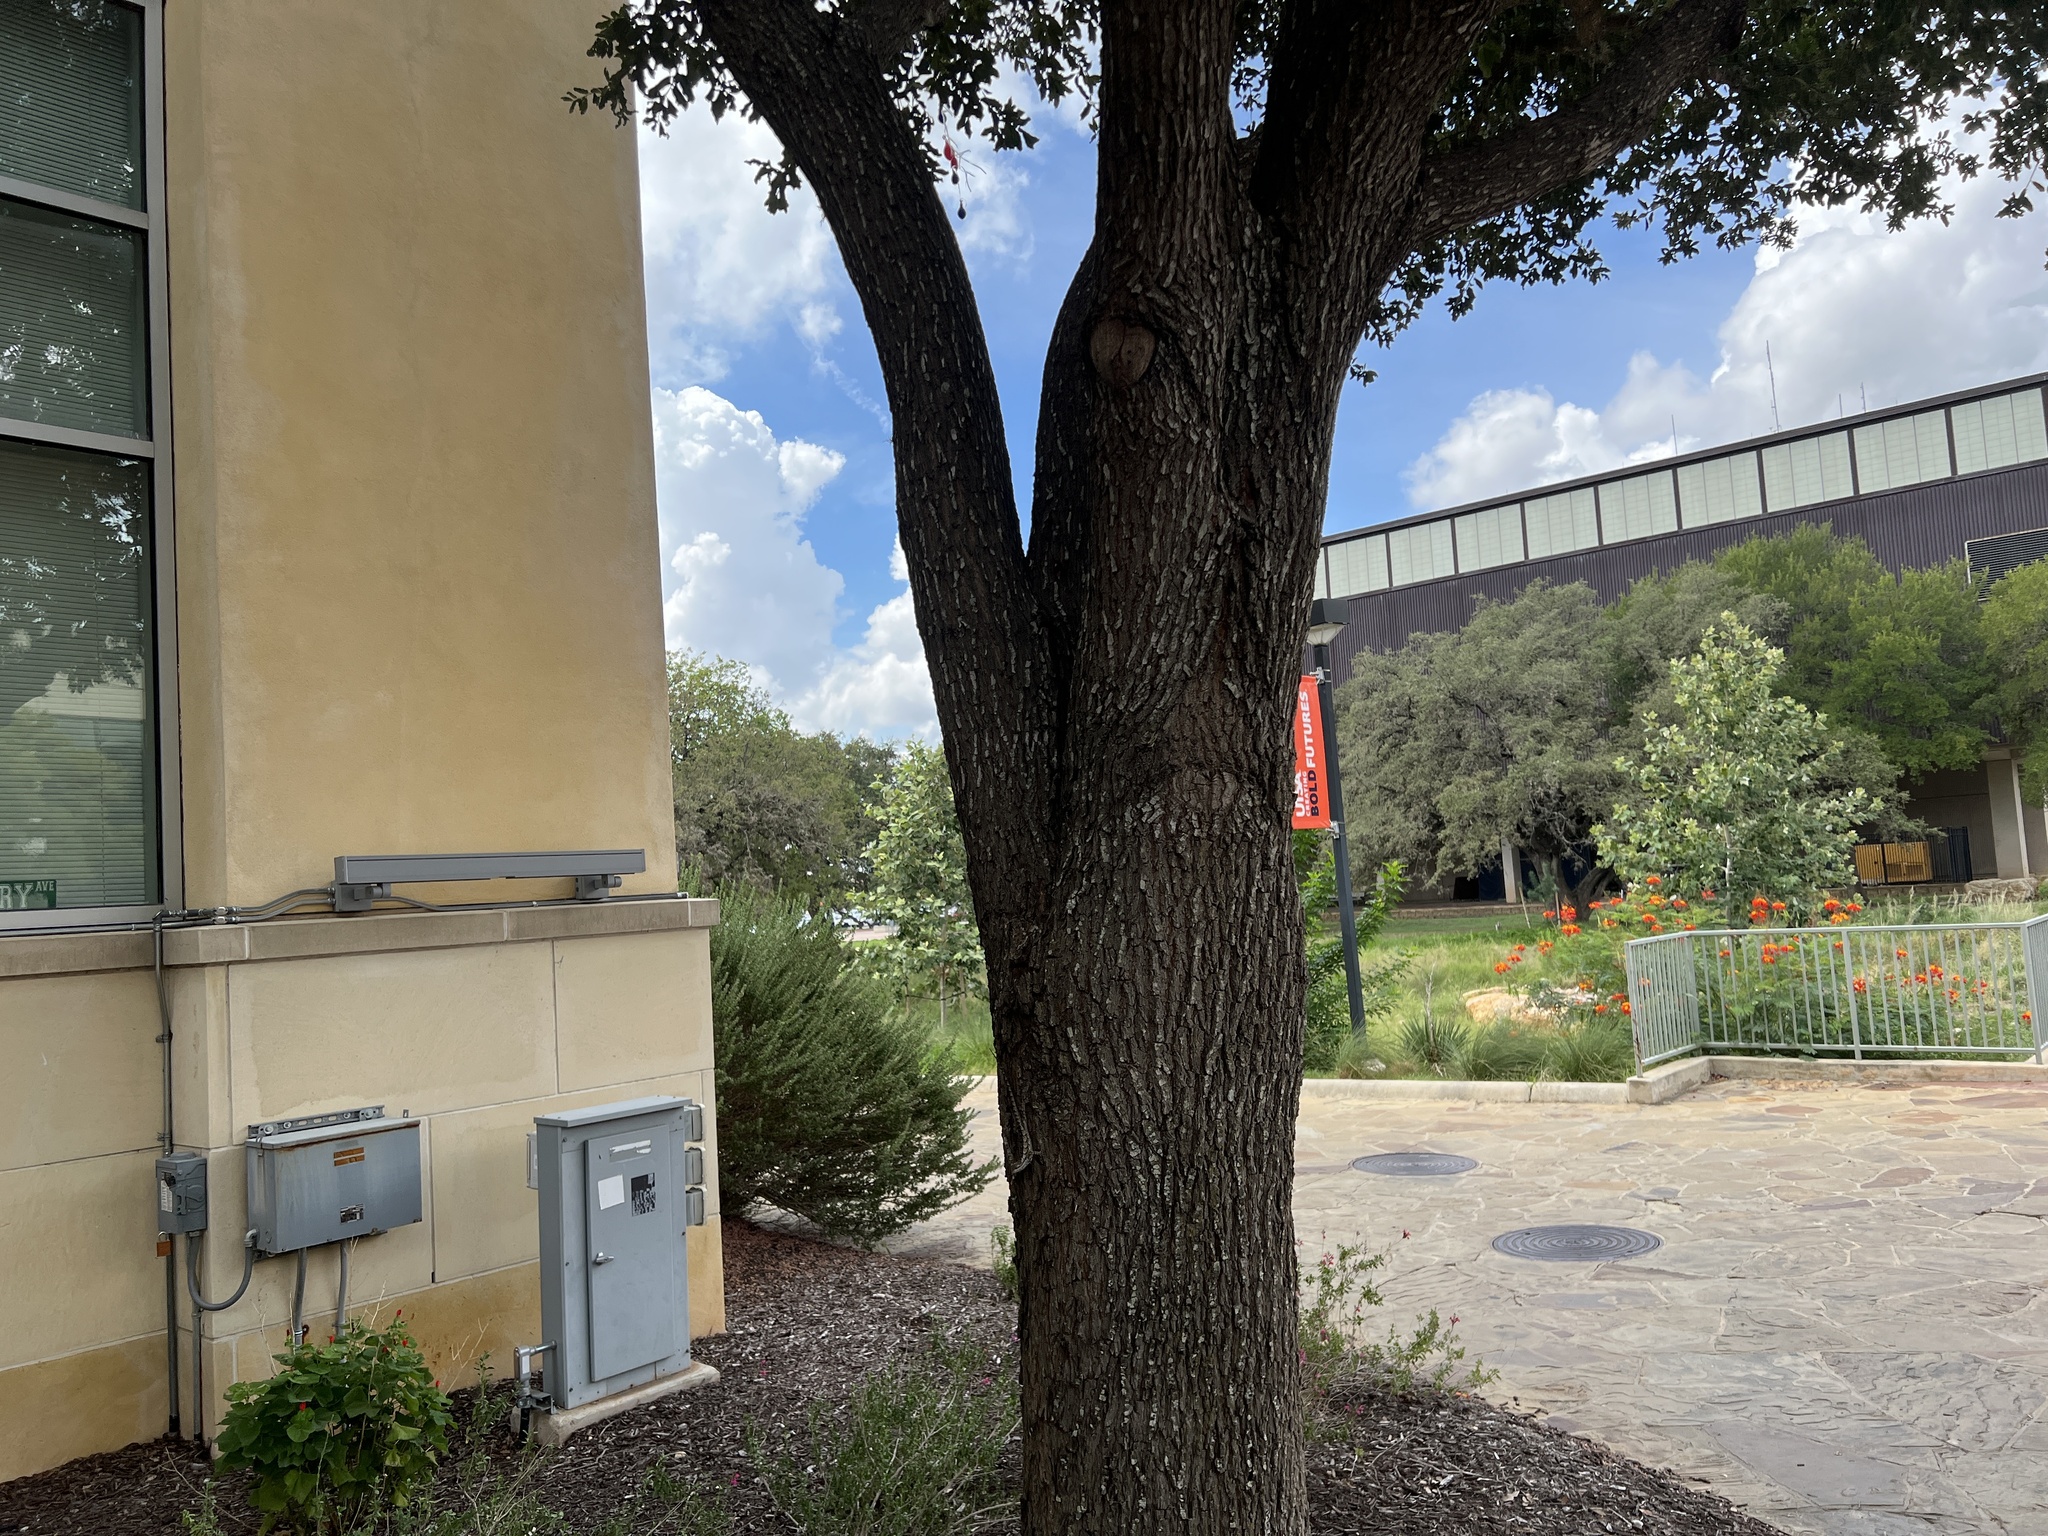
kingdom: Animalia
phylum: Chordata
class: Squamata
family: Phrynosomatidae
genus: Sceloporus
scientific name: Sceloporus olivaceus
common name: Texas spiny lizard
